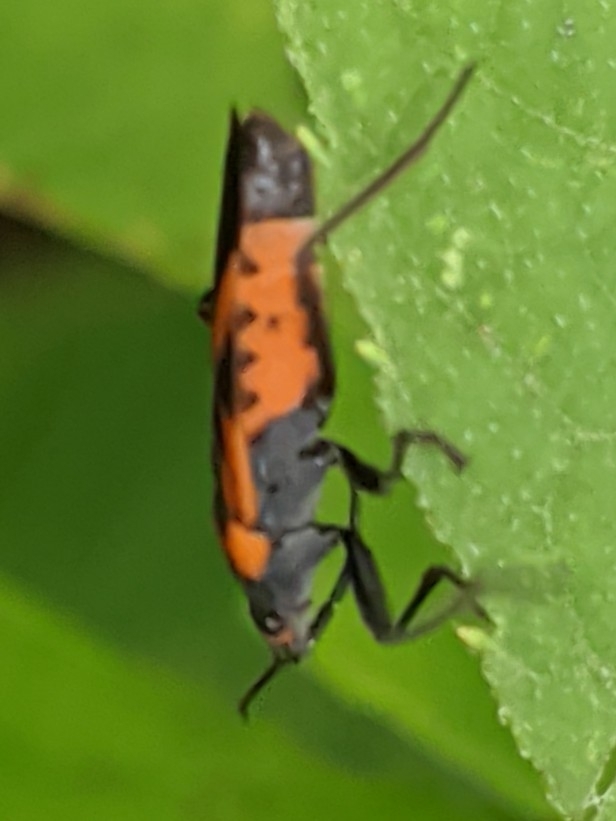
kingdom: Animalia
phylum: Arthropoda
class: Insecta
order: Hemiptera
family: Lygaeidae
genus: Lygaeus
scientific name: Lygaeus turcicus
